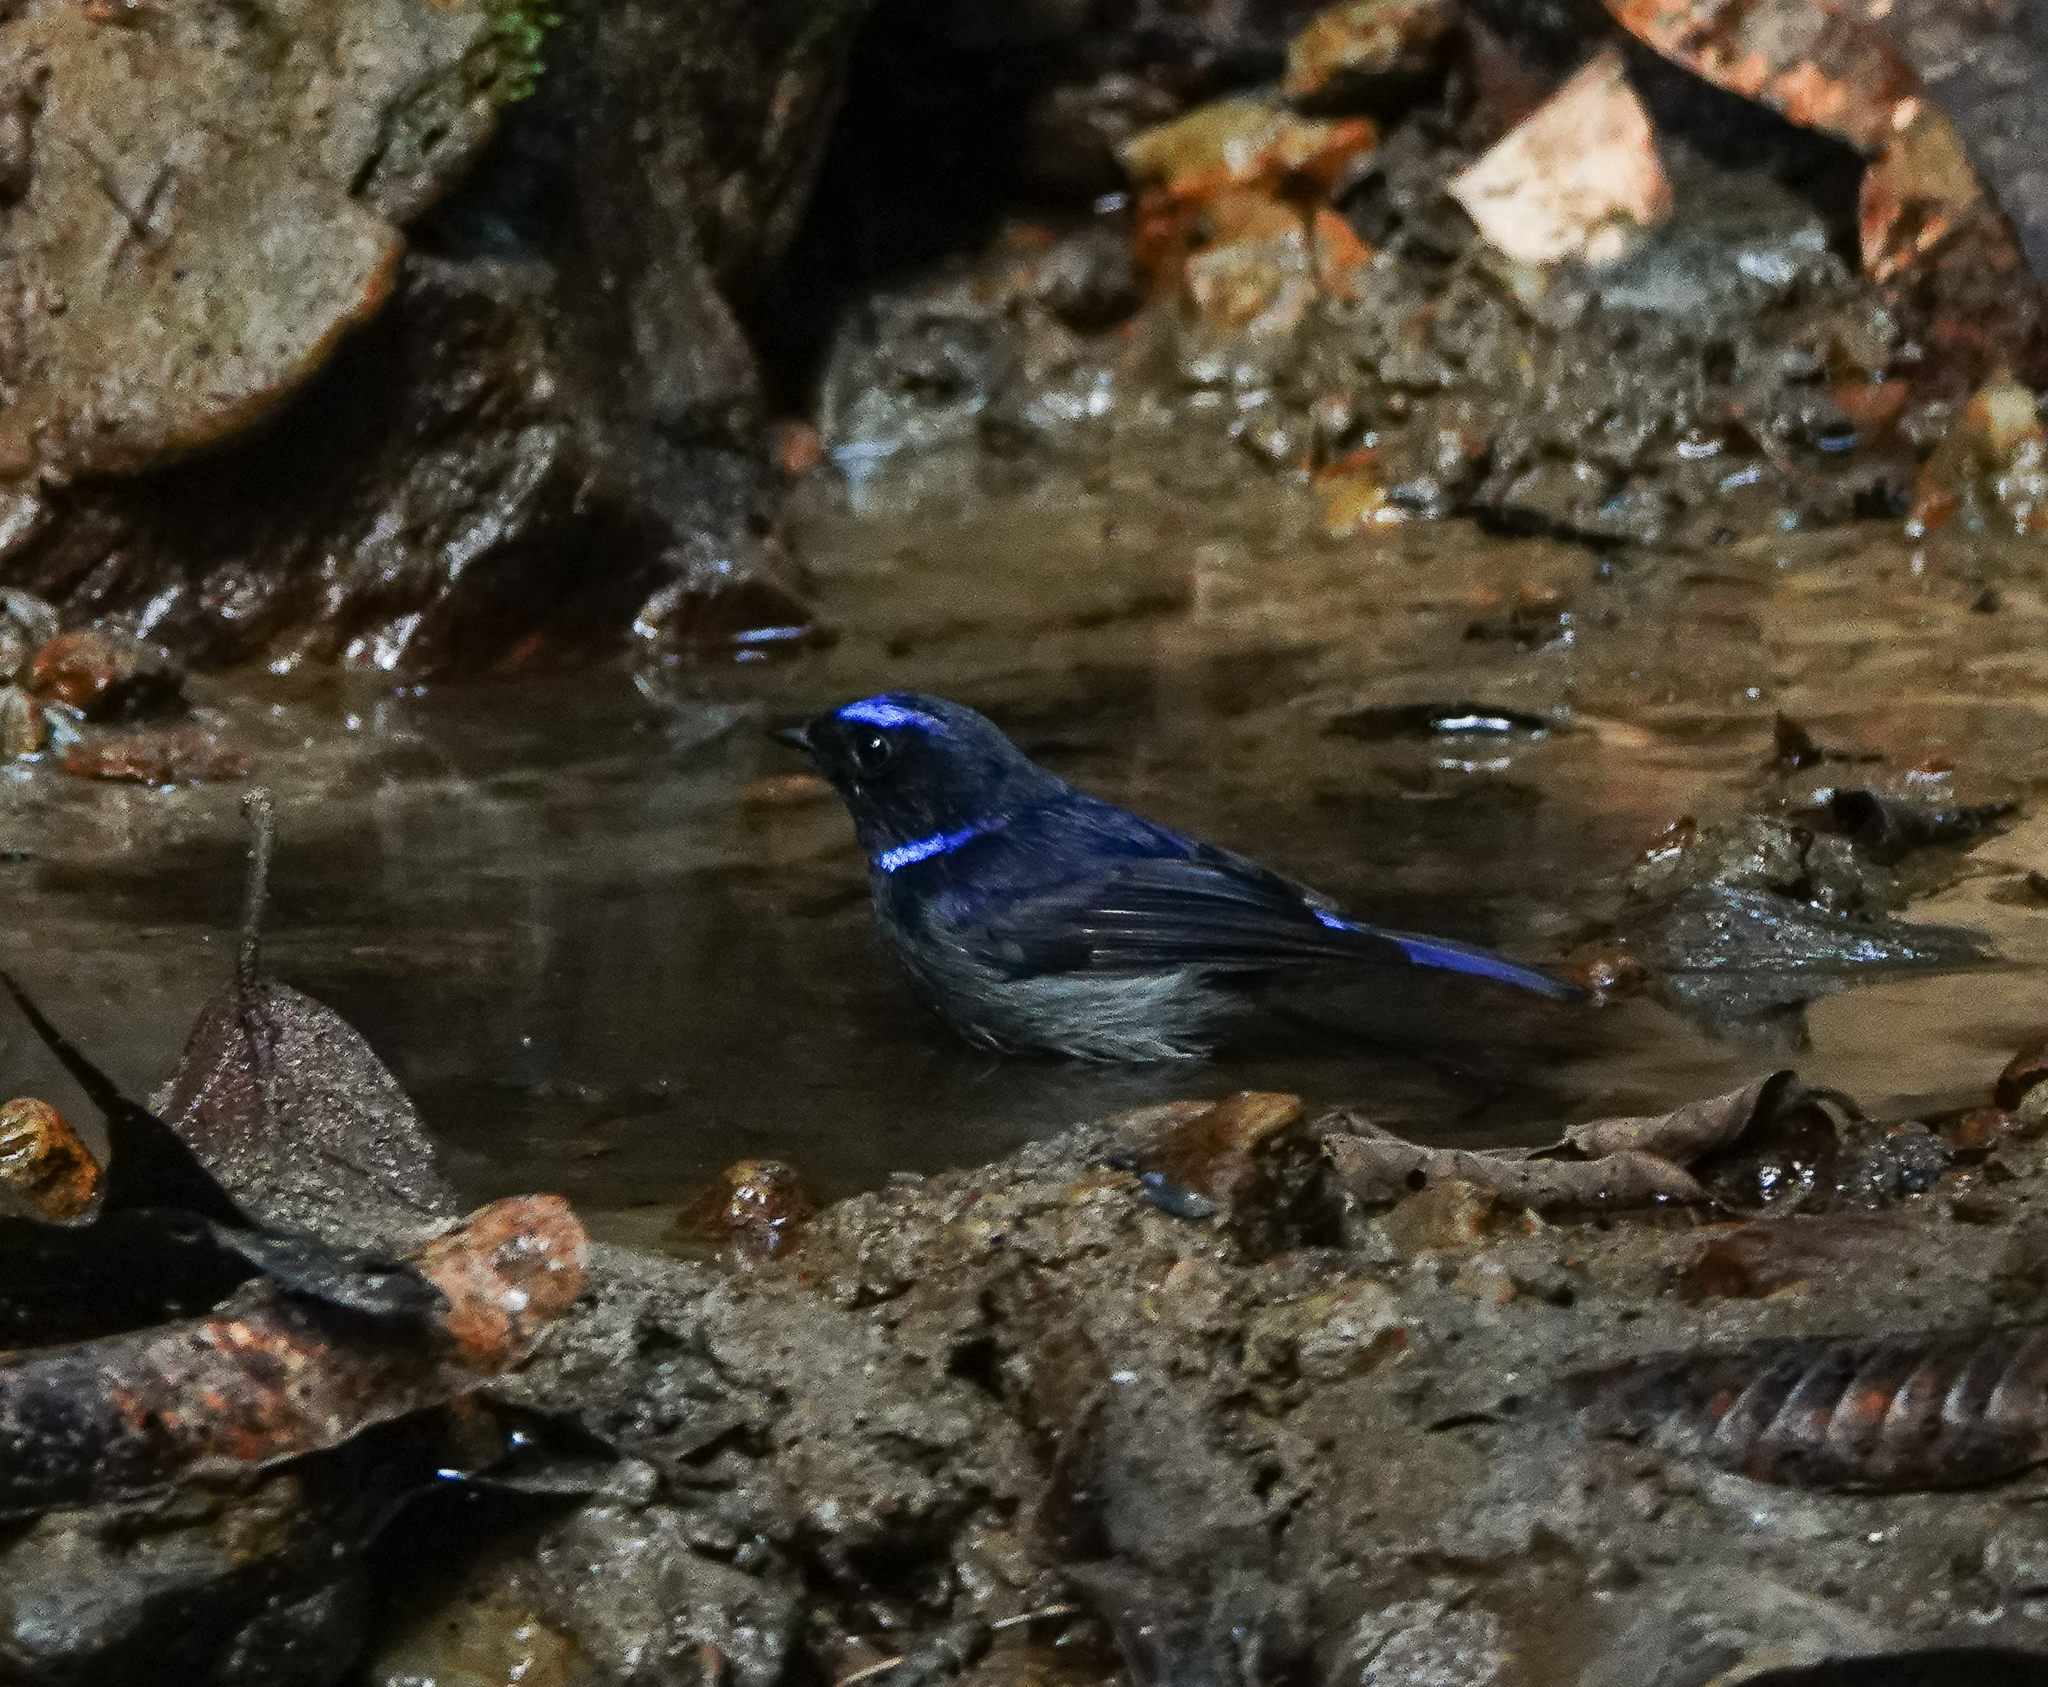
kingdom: Animalia
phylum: Chordata
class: Aves
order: Passeriformes
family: Muscicapidae
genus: Niltava
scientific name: Niltava macgrigoriae
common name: Small niltava
